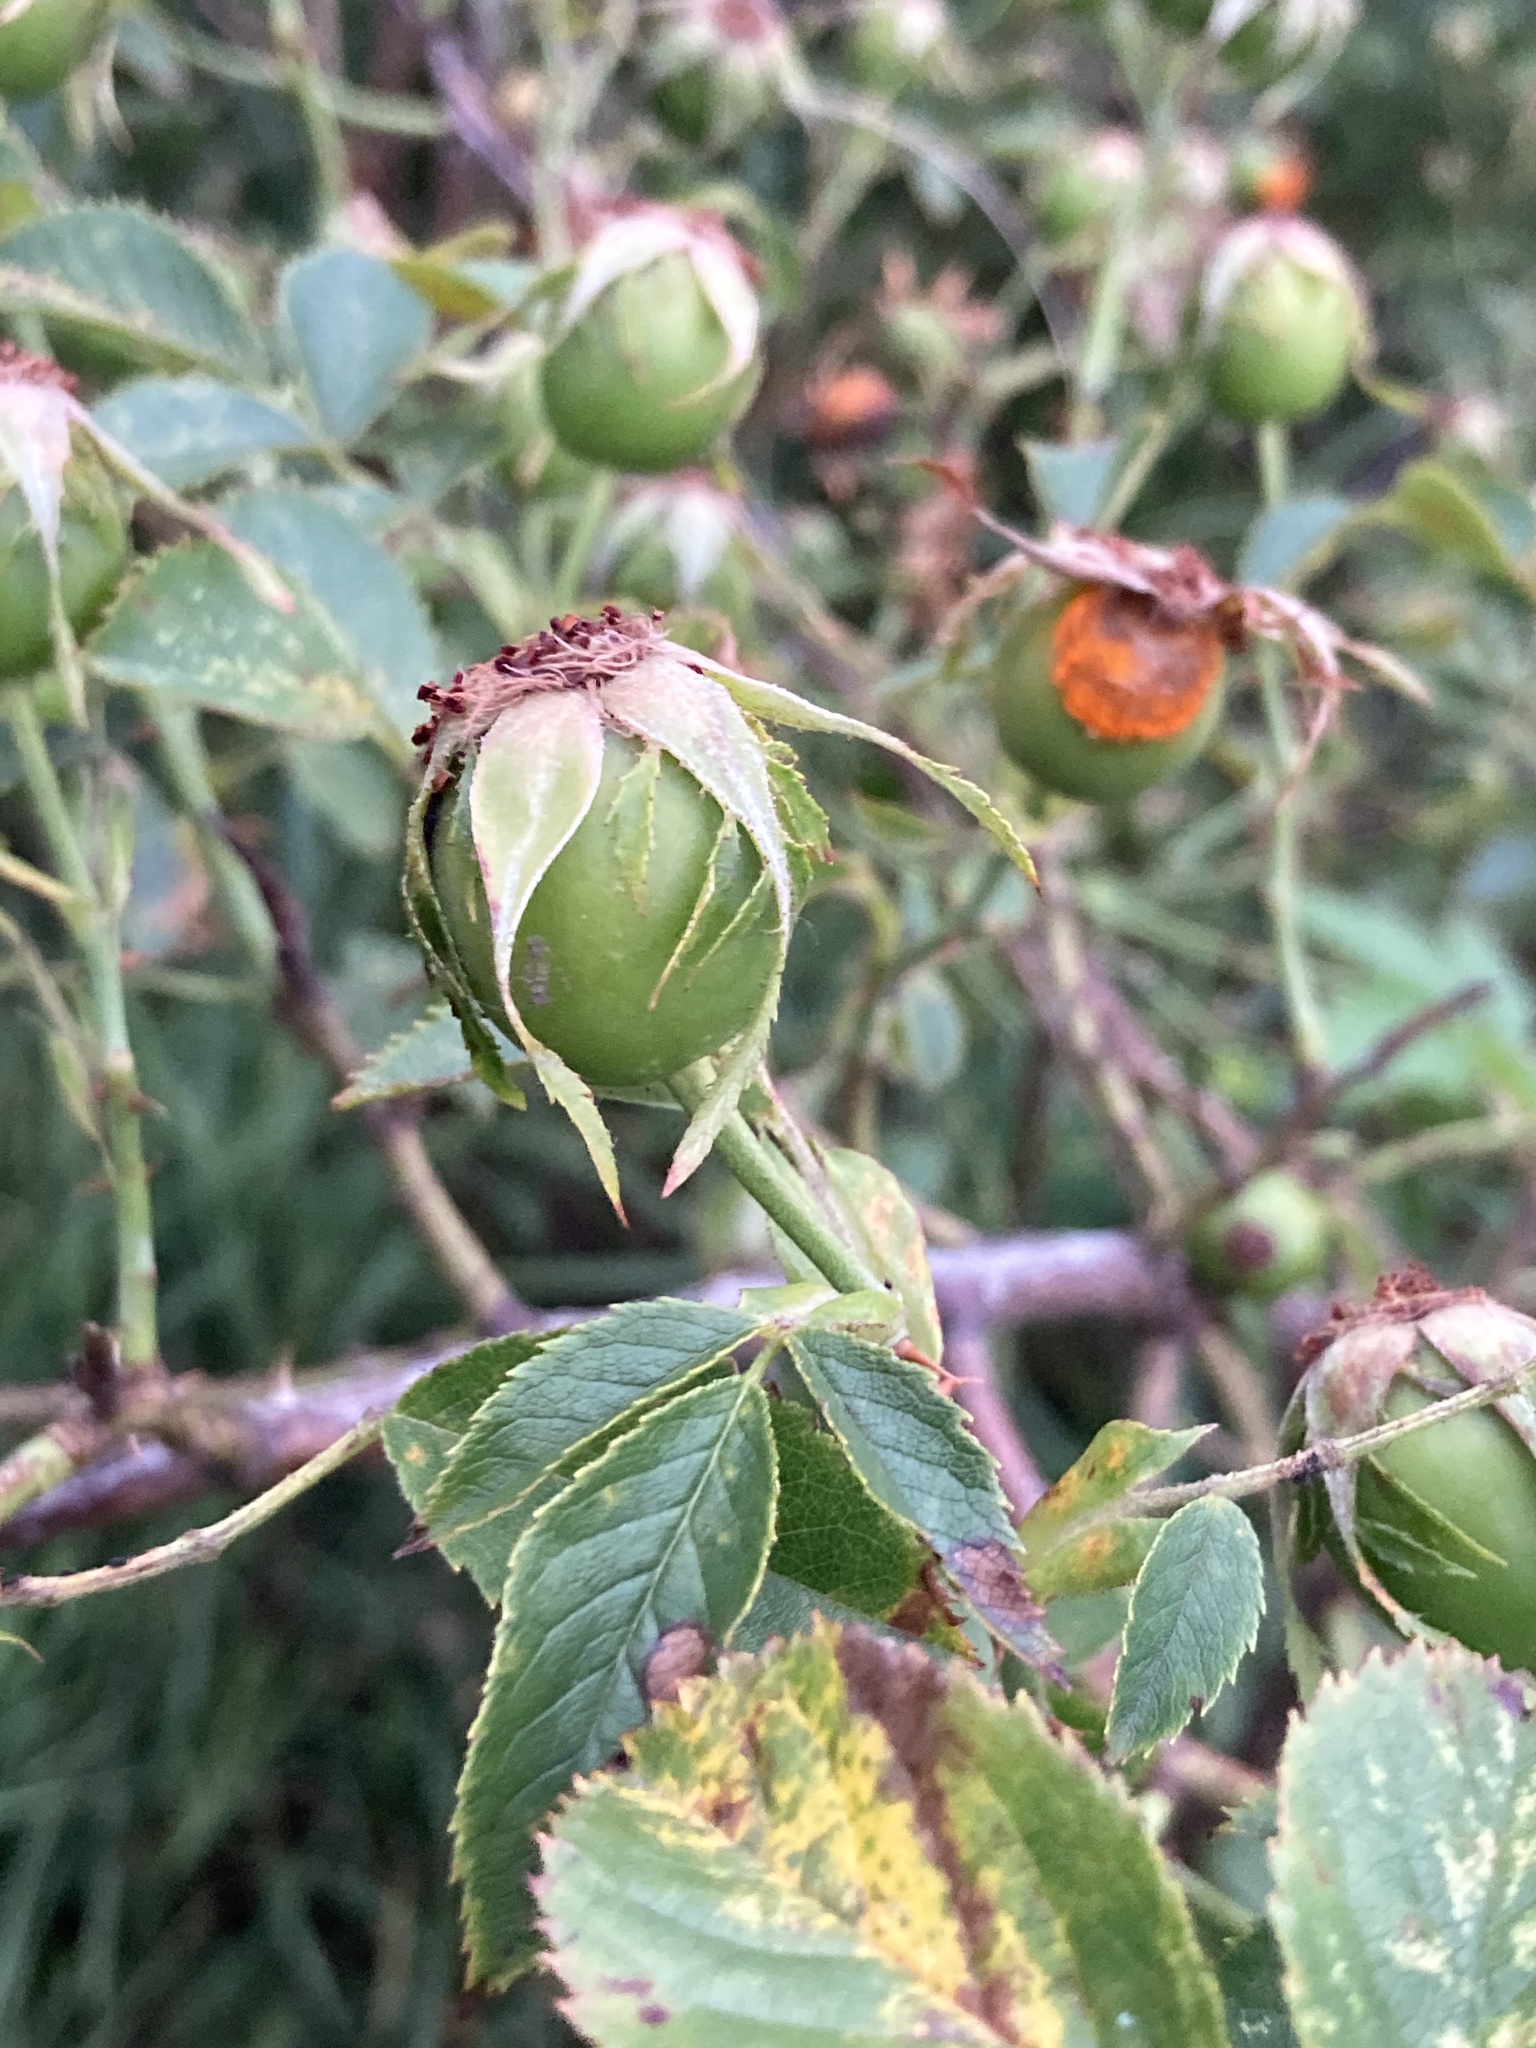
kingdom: Plantae
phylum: Tracheophyta
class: Magnoliopsida
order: Rosales
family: Rosaceae
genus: Rosa
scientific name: Rosa corymbifera
